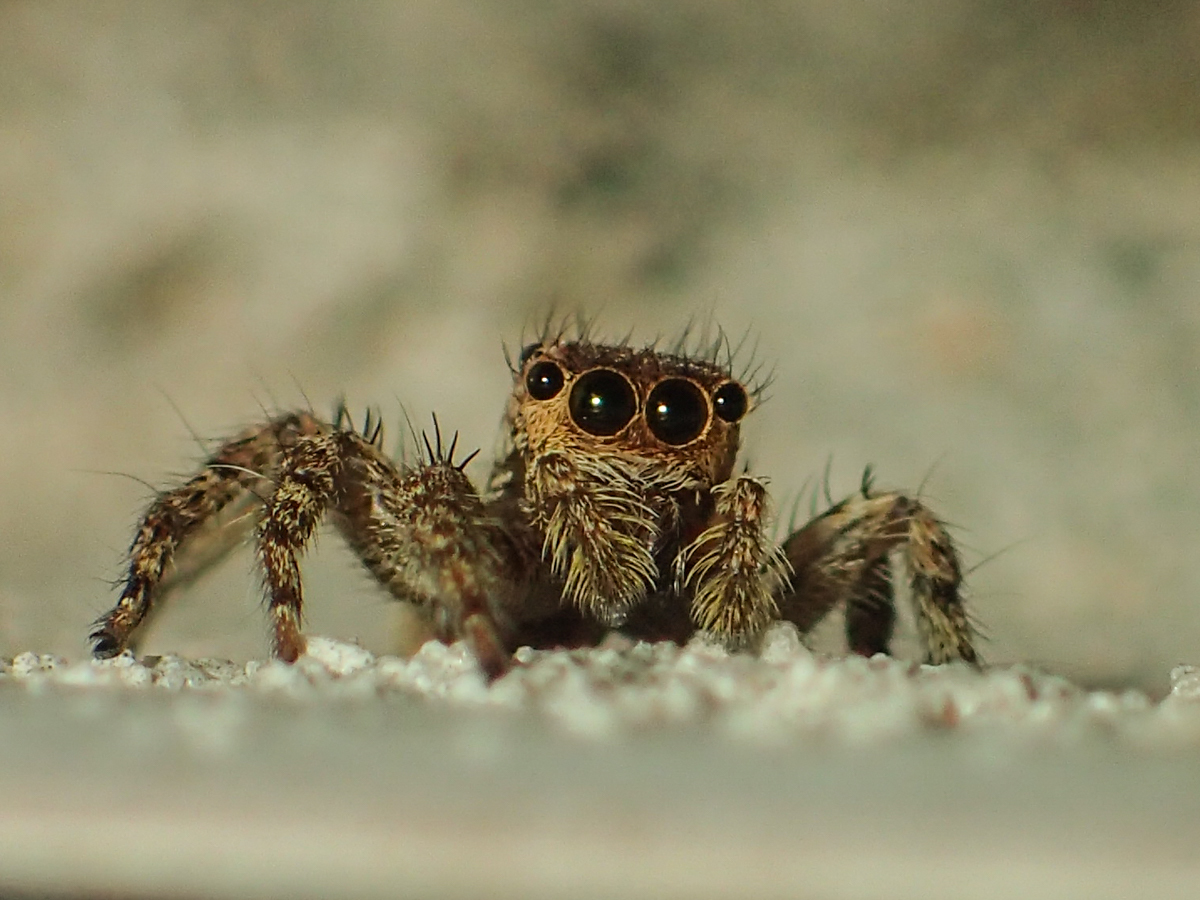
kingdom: Animalia
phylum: Arthropoda
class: Arachnida
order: Araneae
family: Salticidae
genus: Plexippus
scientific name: Plexippus petersi
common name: Jumping spider
